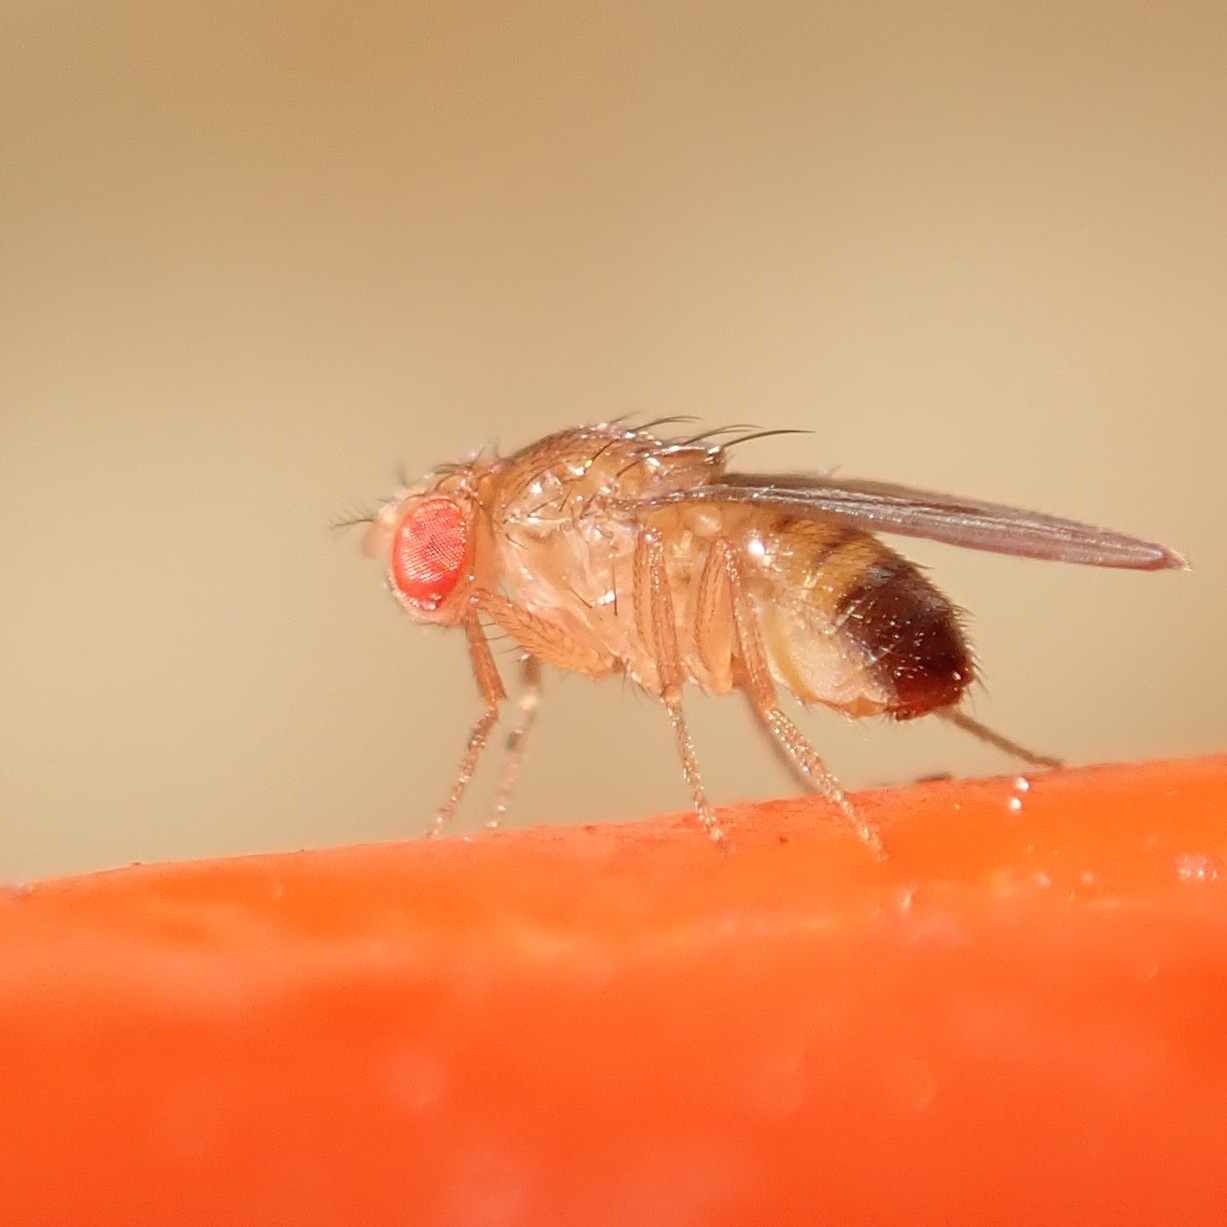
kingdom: Animalia
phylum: Arthropoda
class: Insecta
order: Diptera
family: Drosophilidae
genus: Drosophila
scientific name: Drosophila melanogaster
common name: Pomace fly
